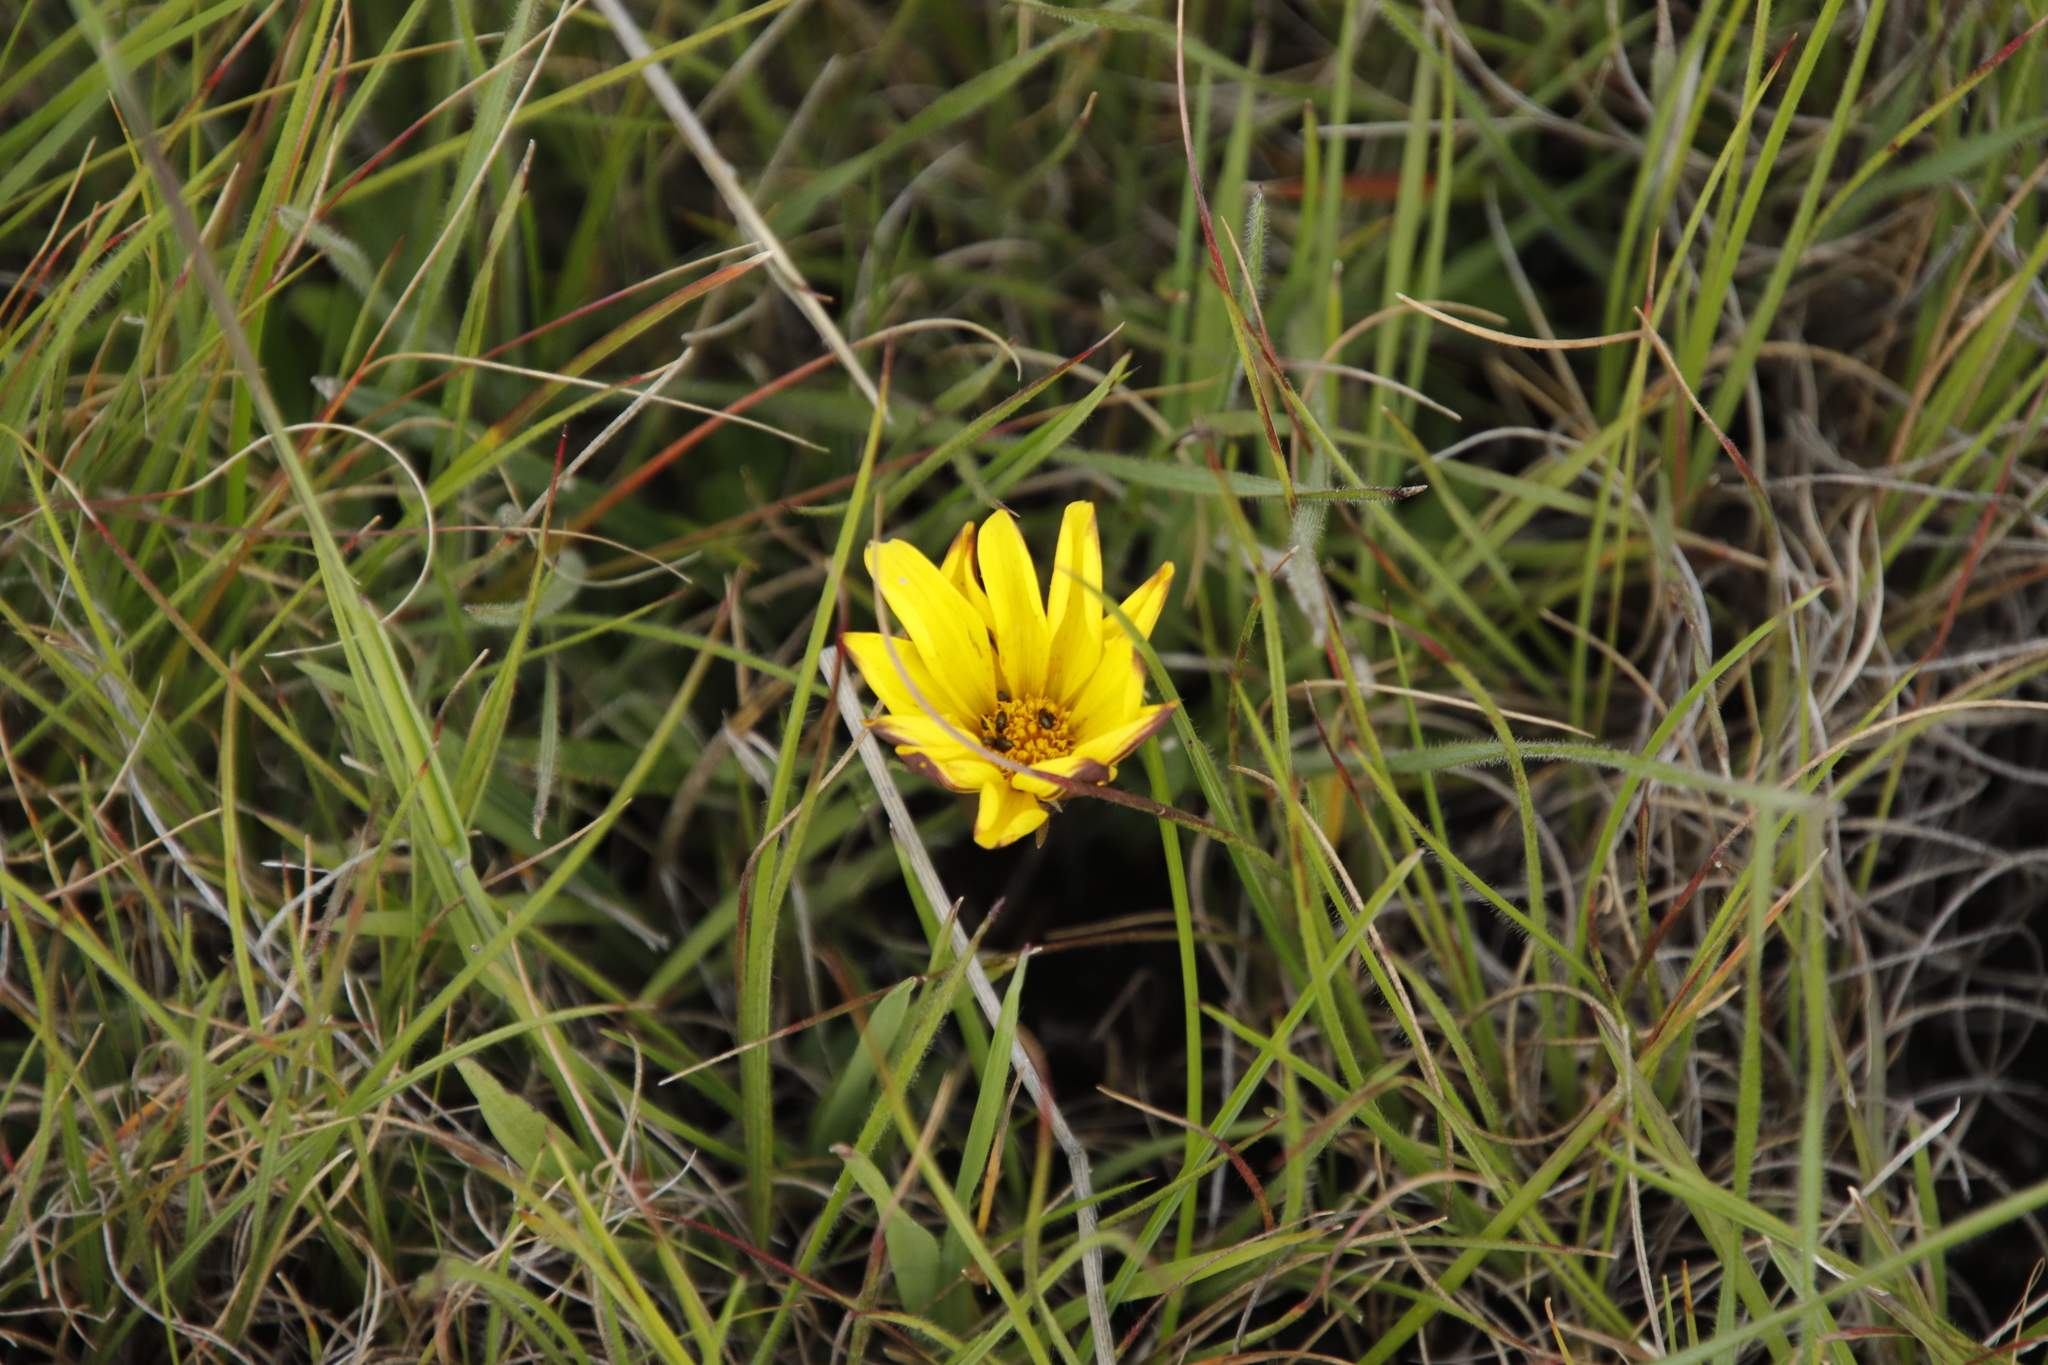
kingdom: Plantae
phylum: Tracheophyta
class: Magnoliopsida
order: Asterales
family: Asteraceae
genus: Gazania
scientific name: Gazania krebsiana
